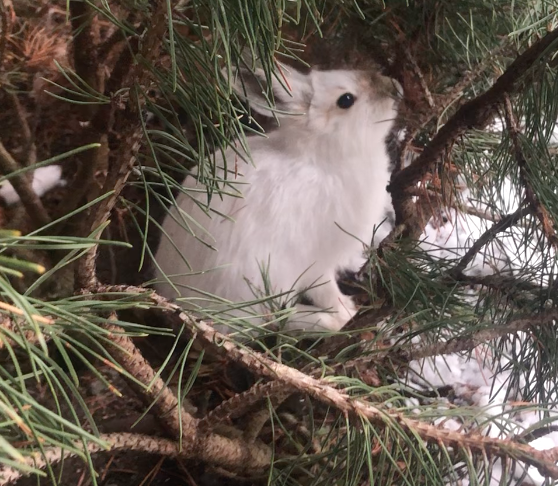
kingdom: Animalia
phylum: Chordata
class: Mammalia
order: Lagomorpha
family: Leporidae
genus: Lepus
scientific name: Lepus americanus
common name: Snowshoe hare
